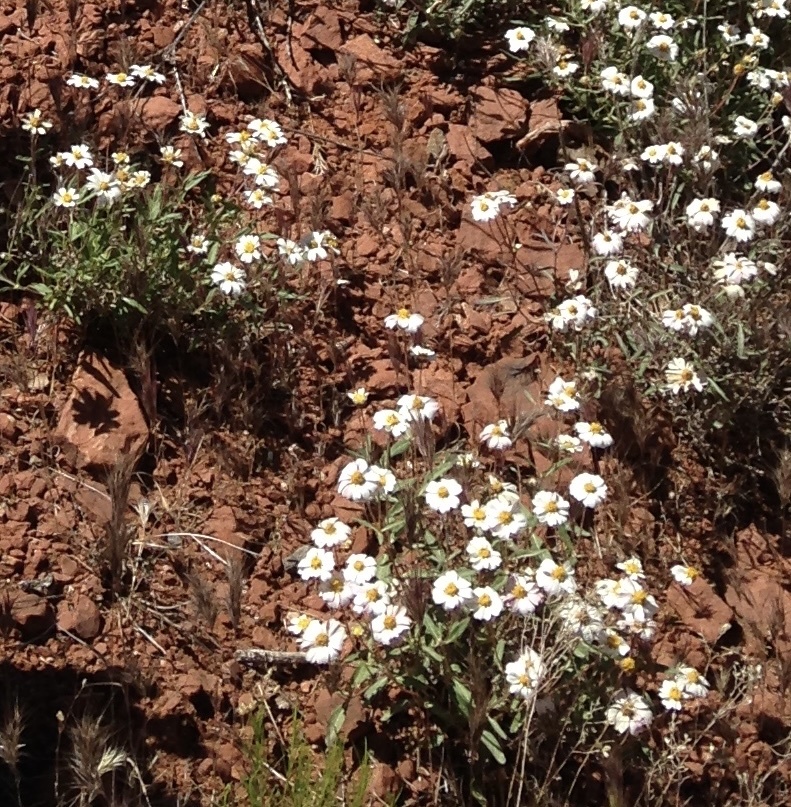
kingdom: Plantae
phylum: Tracheophyta
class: Magnoliopsida
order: Asterales
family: Asteraceae
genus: Melampodium
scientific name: Melampodium leucanthum
